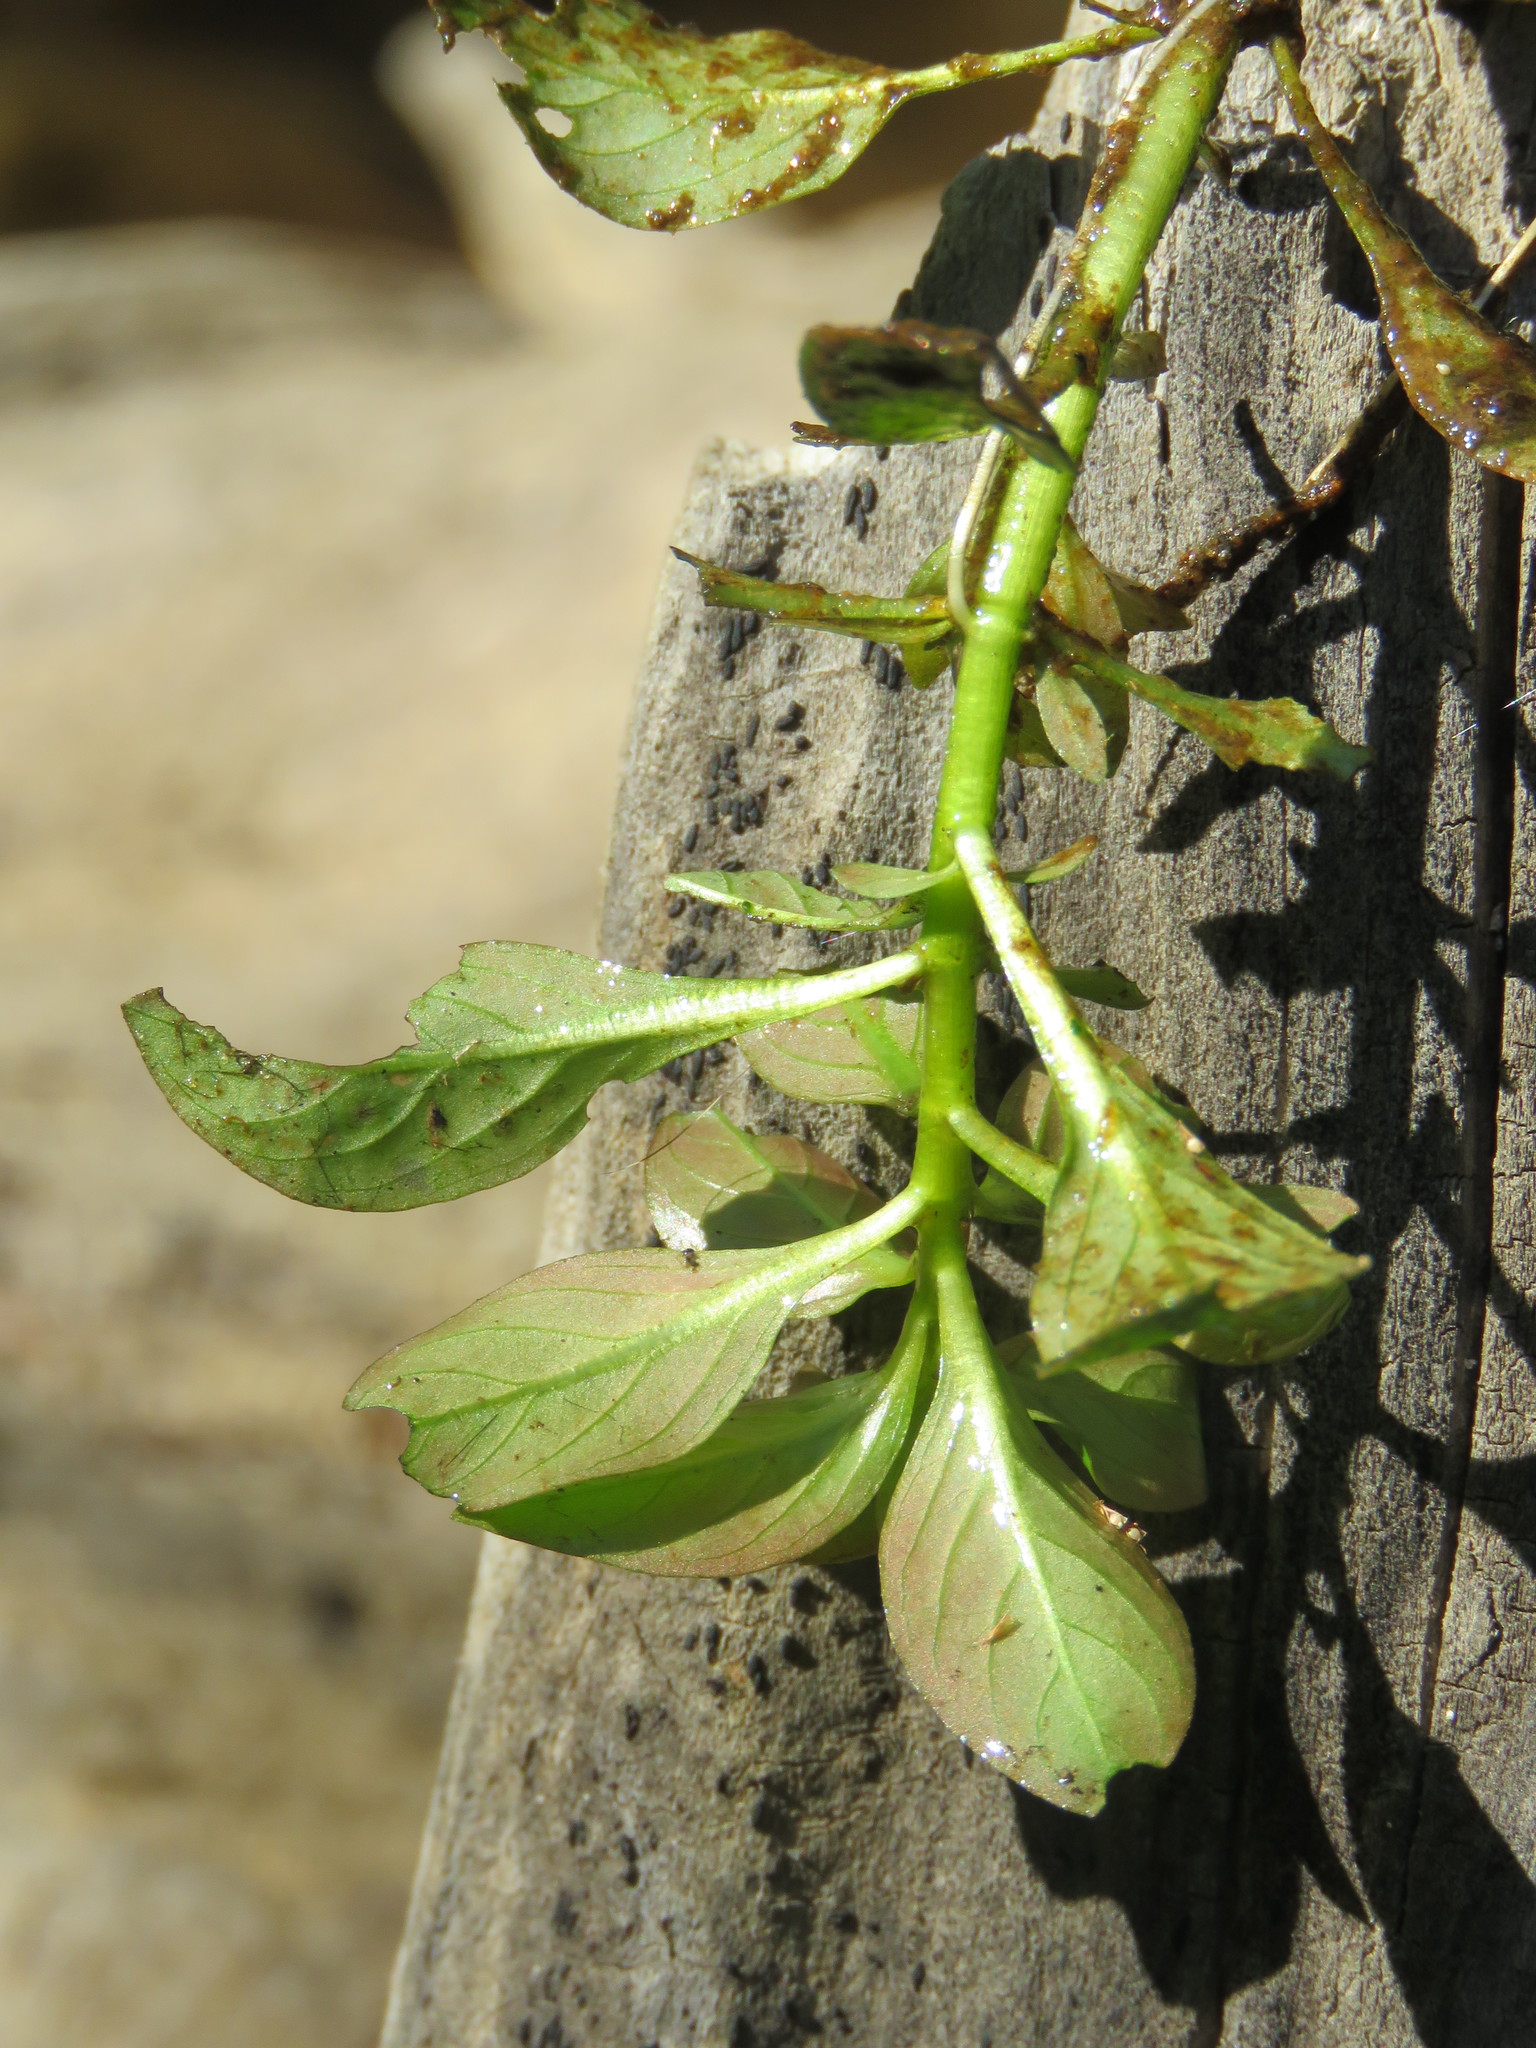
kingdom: Plantae
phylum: Tracheophyta
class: Magnoliopsida
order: Myrtales
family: Onagraceae
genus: Ludwigia
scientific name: Ludwigia palustris
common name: Hampshire-purslane
